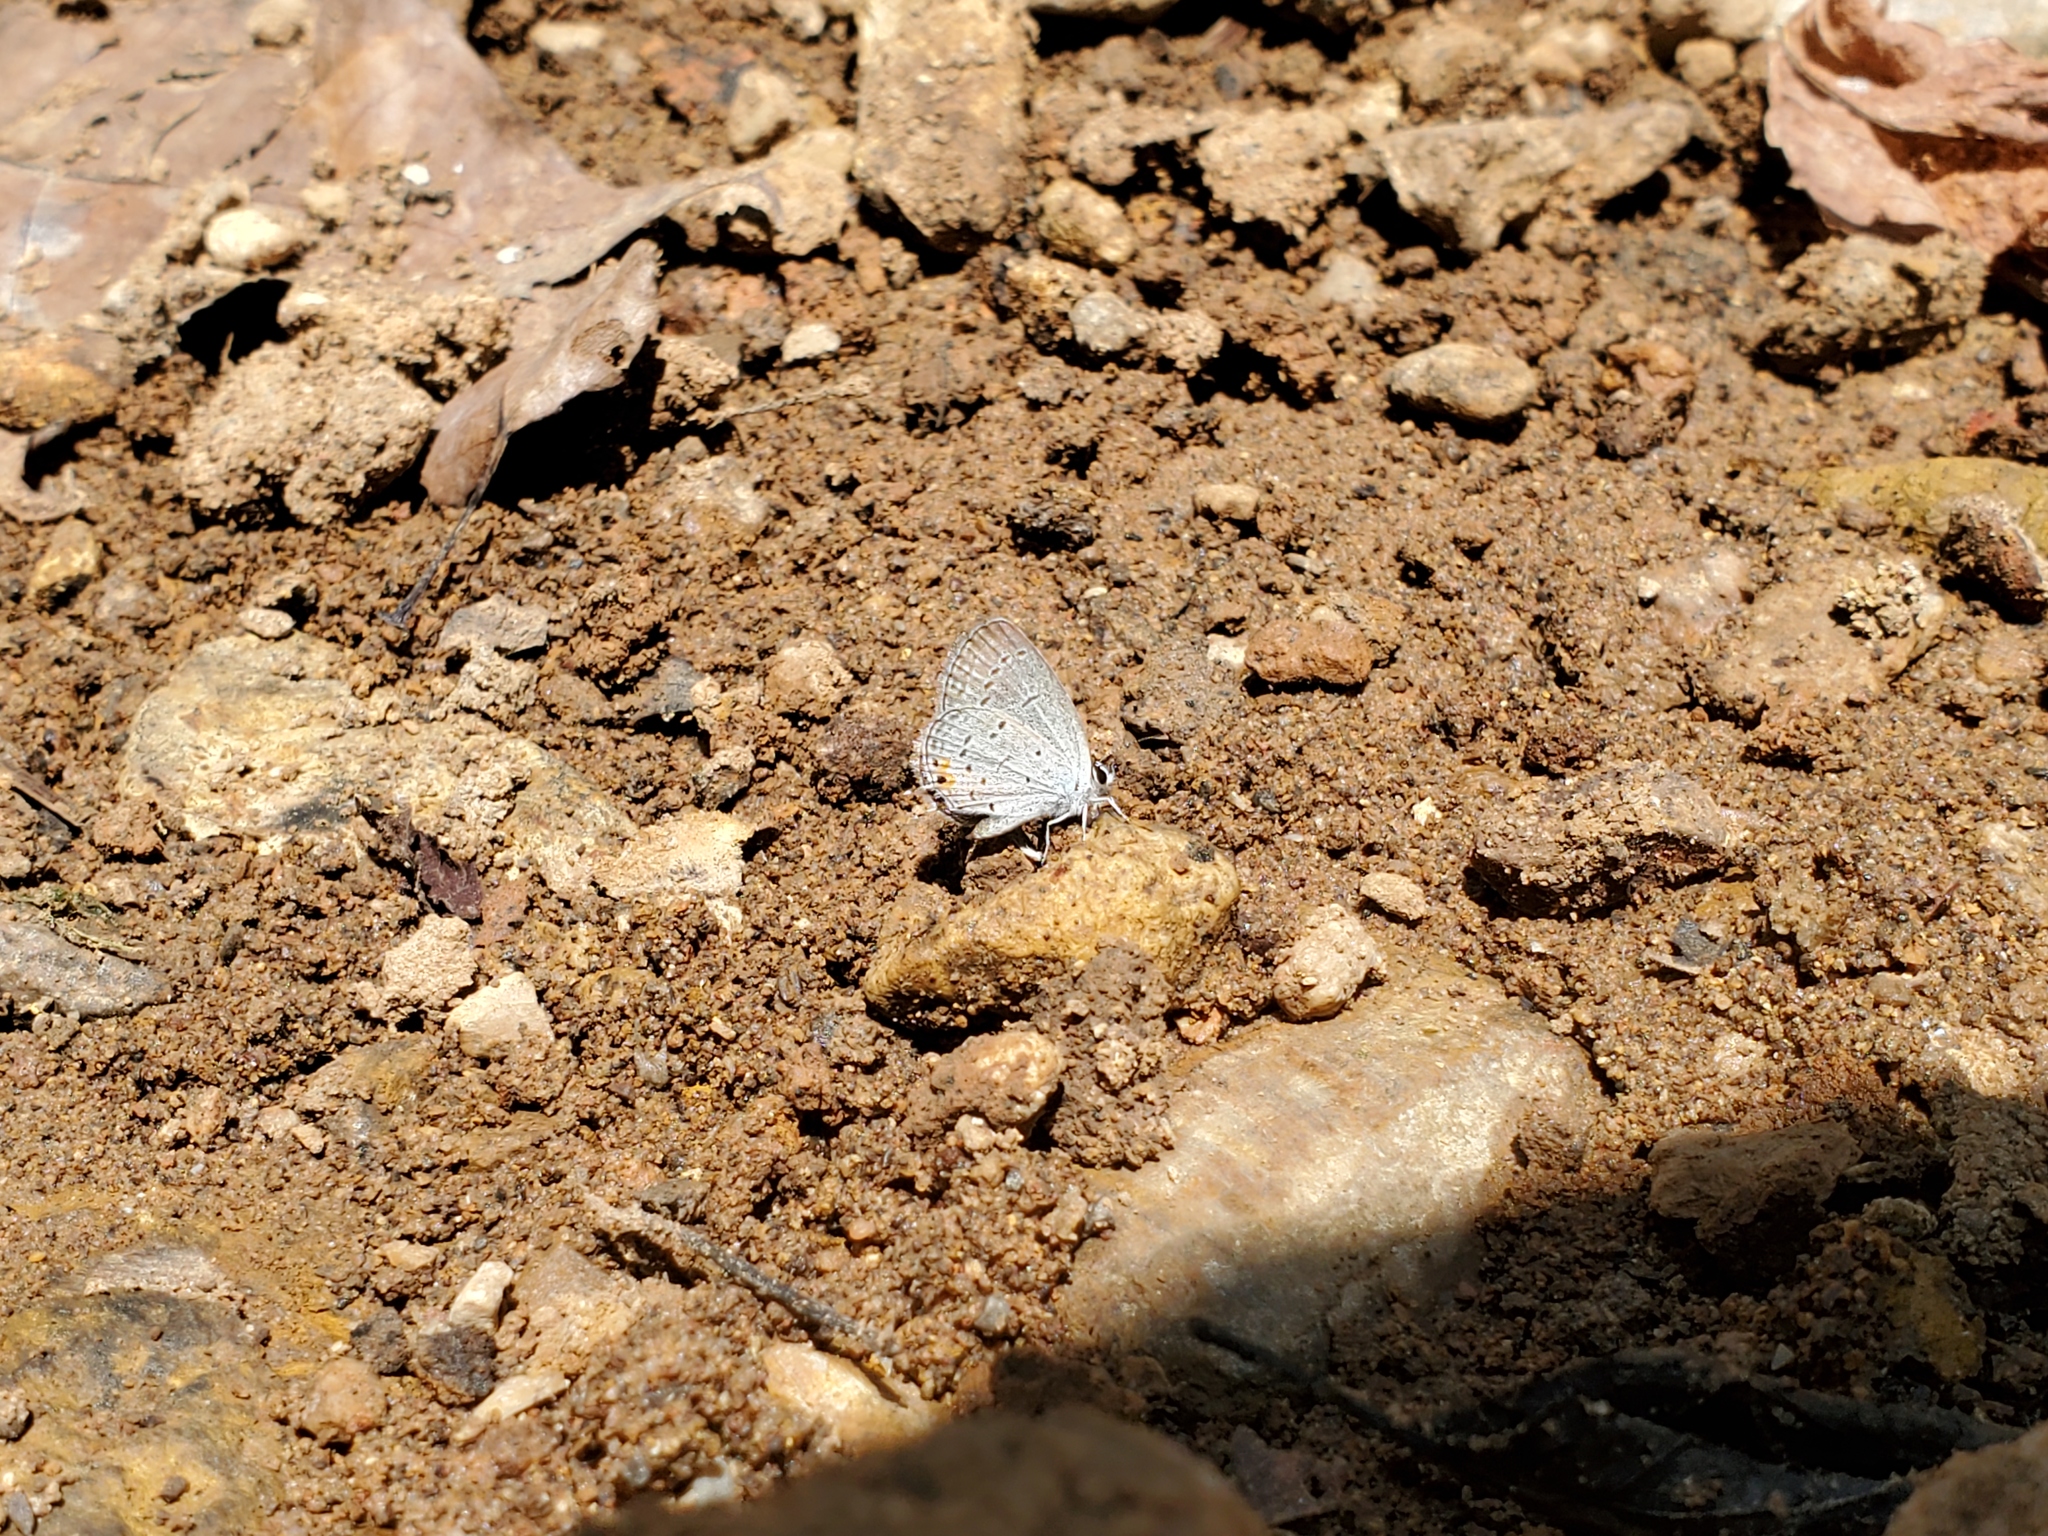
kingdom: Animalia
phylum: Arthropoda
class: Insecta
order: Lepidoptera
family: Lycaenidae
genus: Elkalyce
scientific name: Elkalyce comyntas
